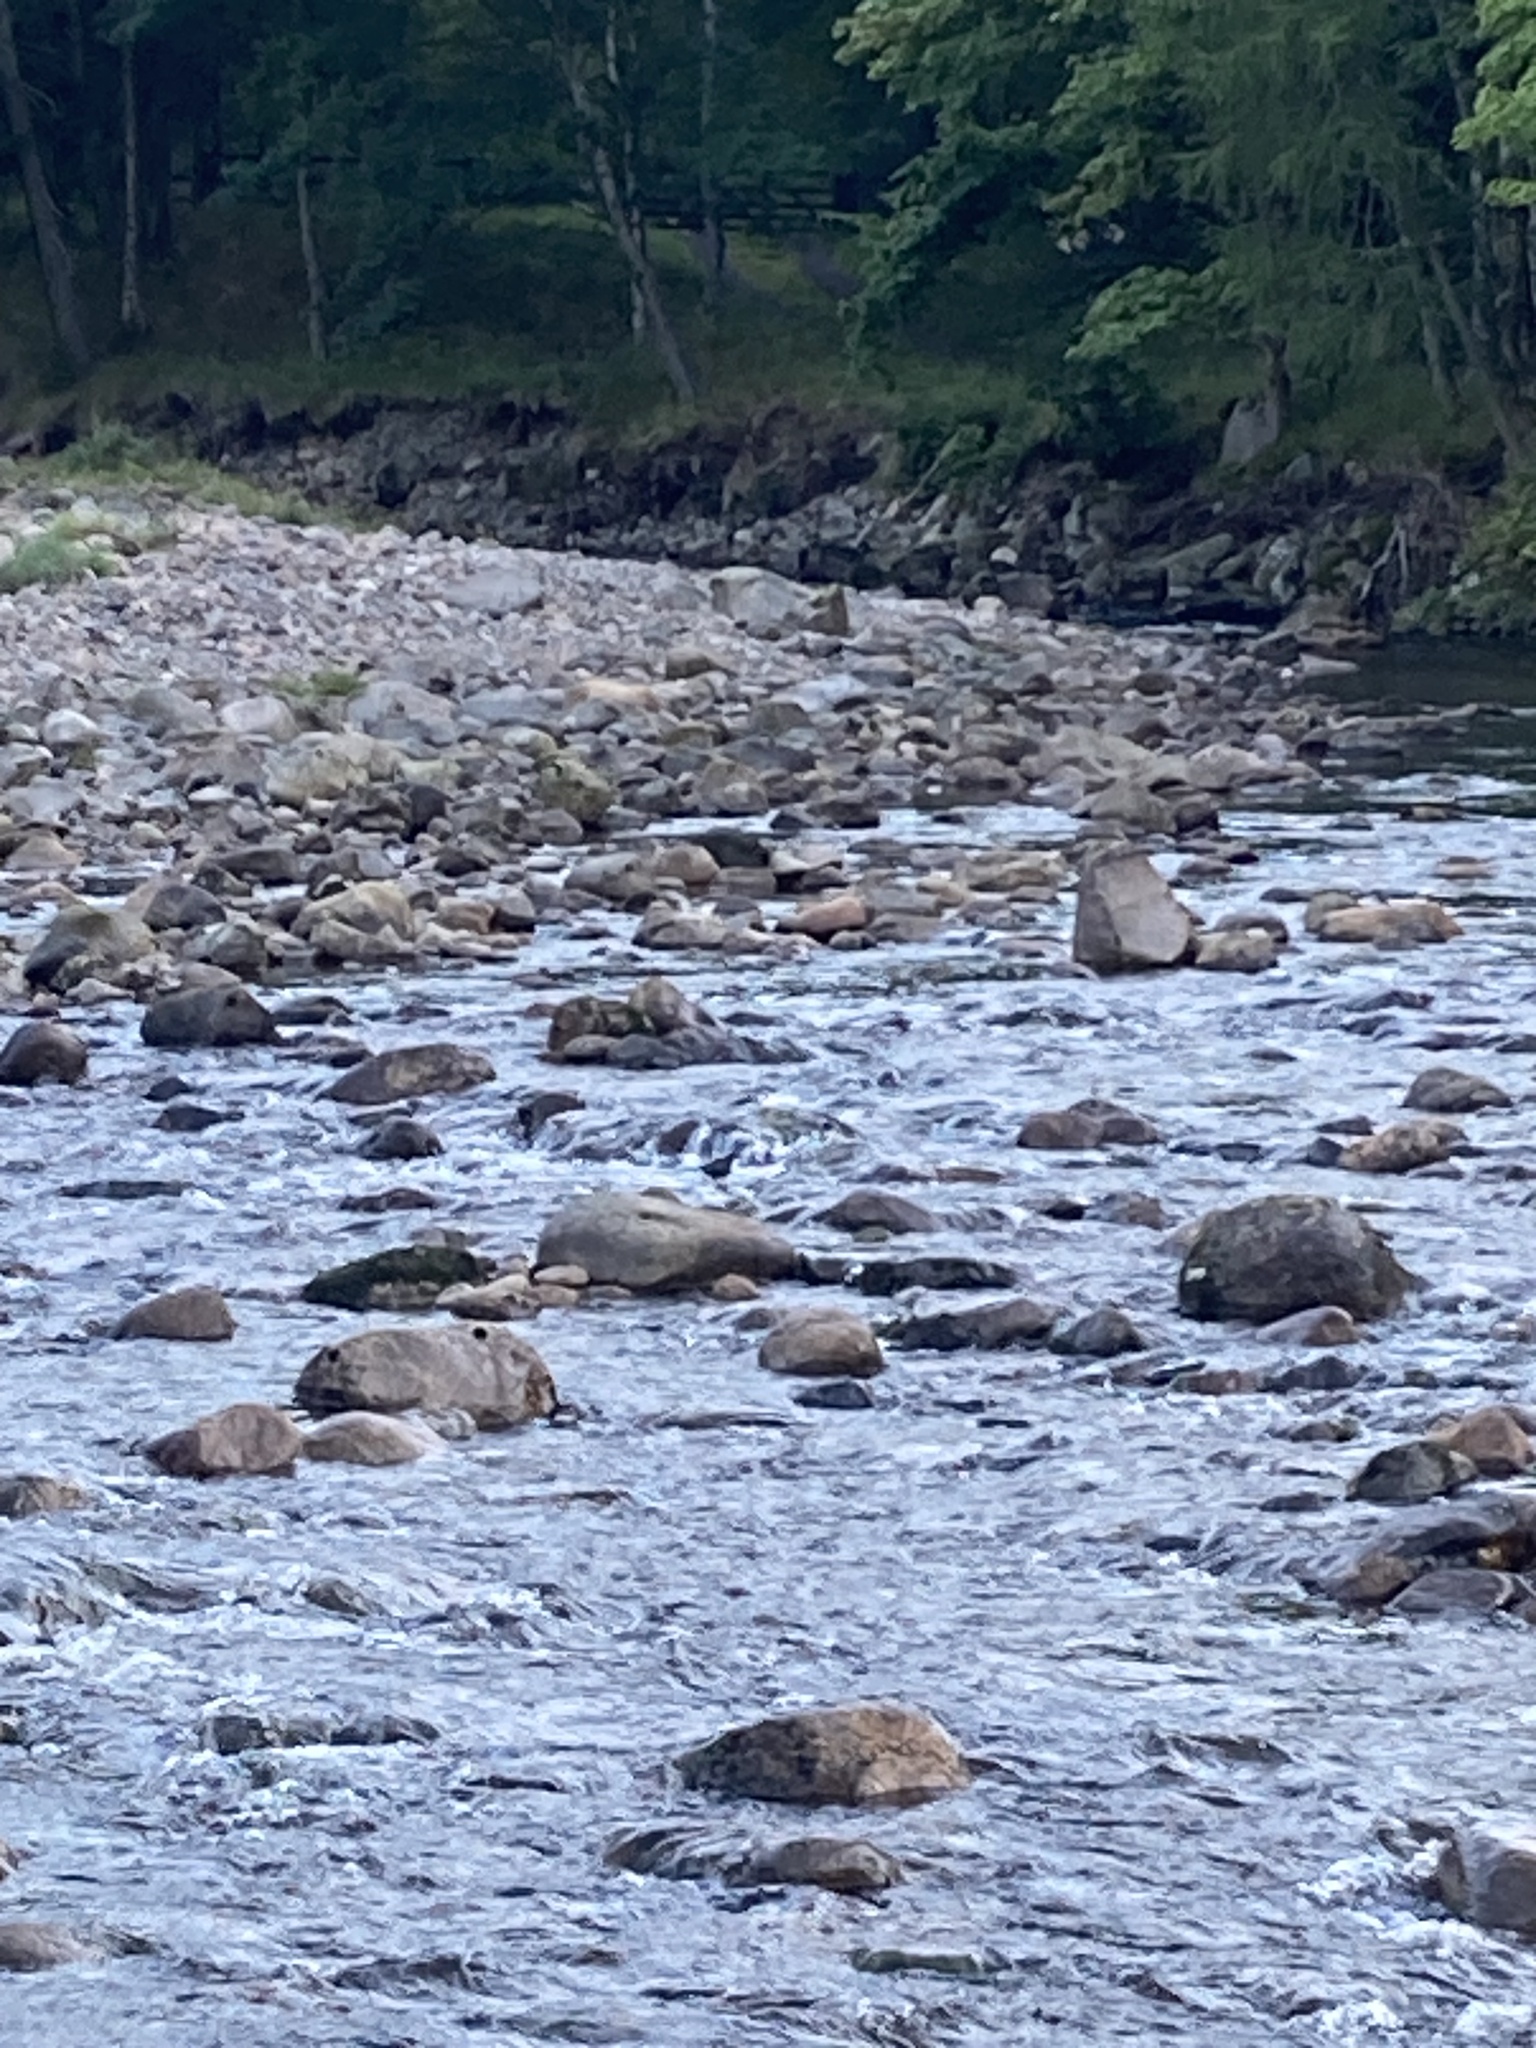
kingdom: Animalia
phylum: Chordata
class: Aves
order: Passeriformes
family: Cinclidae
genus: Cinclus
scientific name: Cinclus cinclus
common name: White-throated dipper
